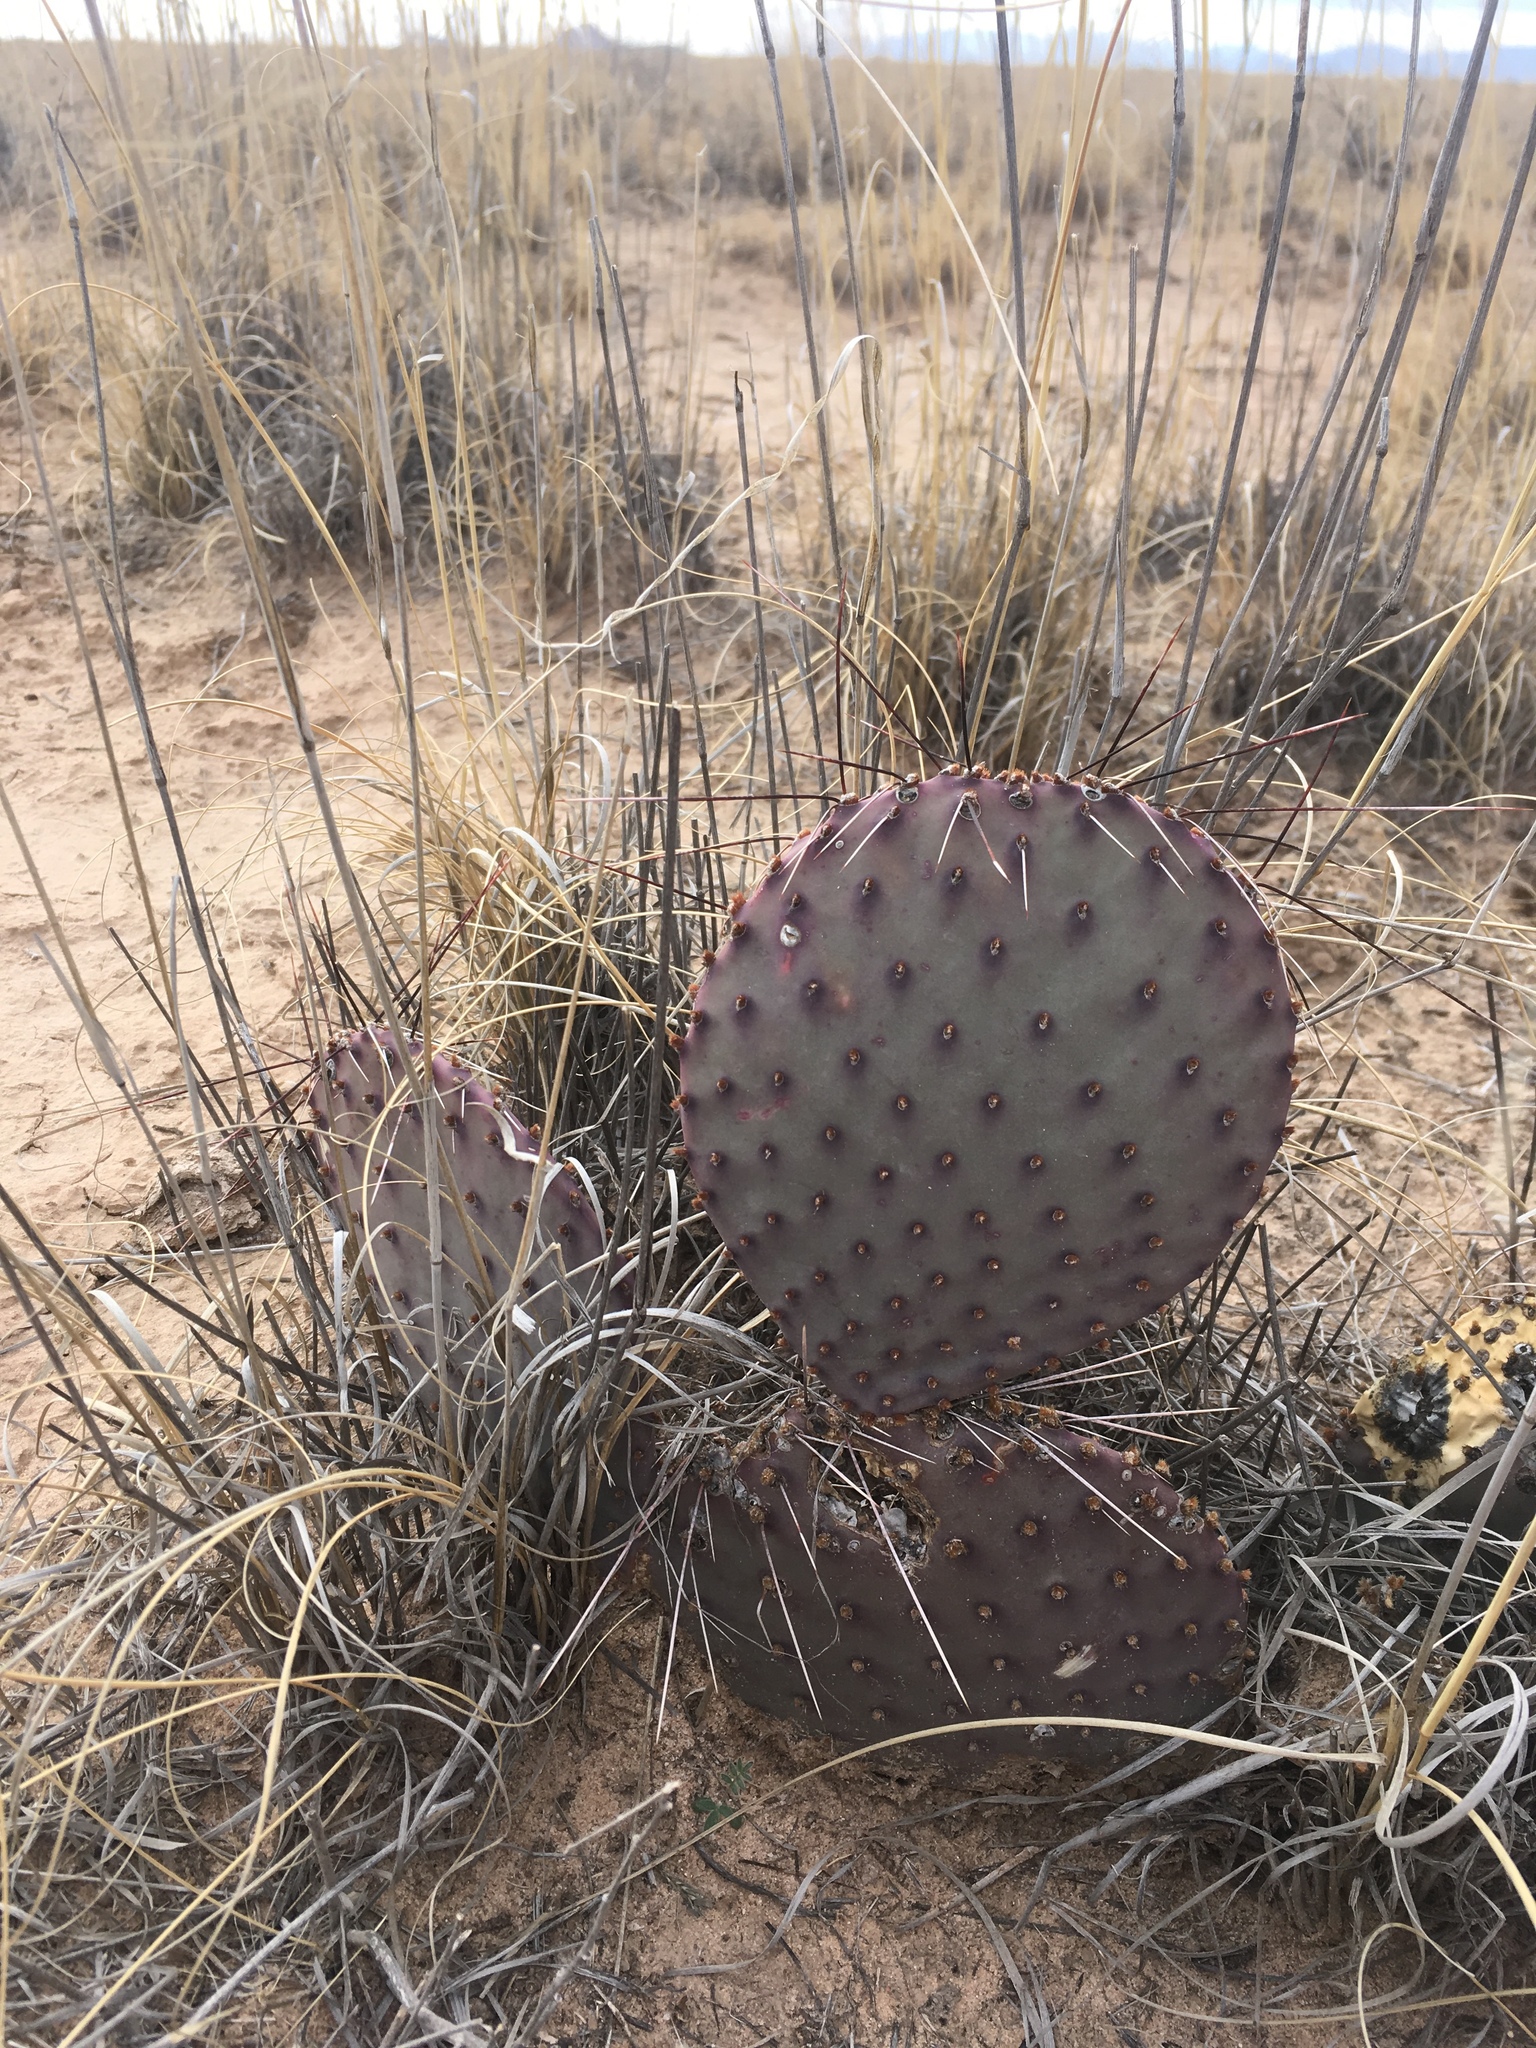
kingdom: Plantae
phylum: Tracheophyta
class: Magnoliopsida
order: Caryophyllales
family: Cactaceae
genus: Opuntia
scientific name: Opuntia macrocentra
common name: Purple prickly-pear
